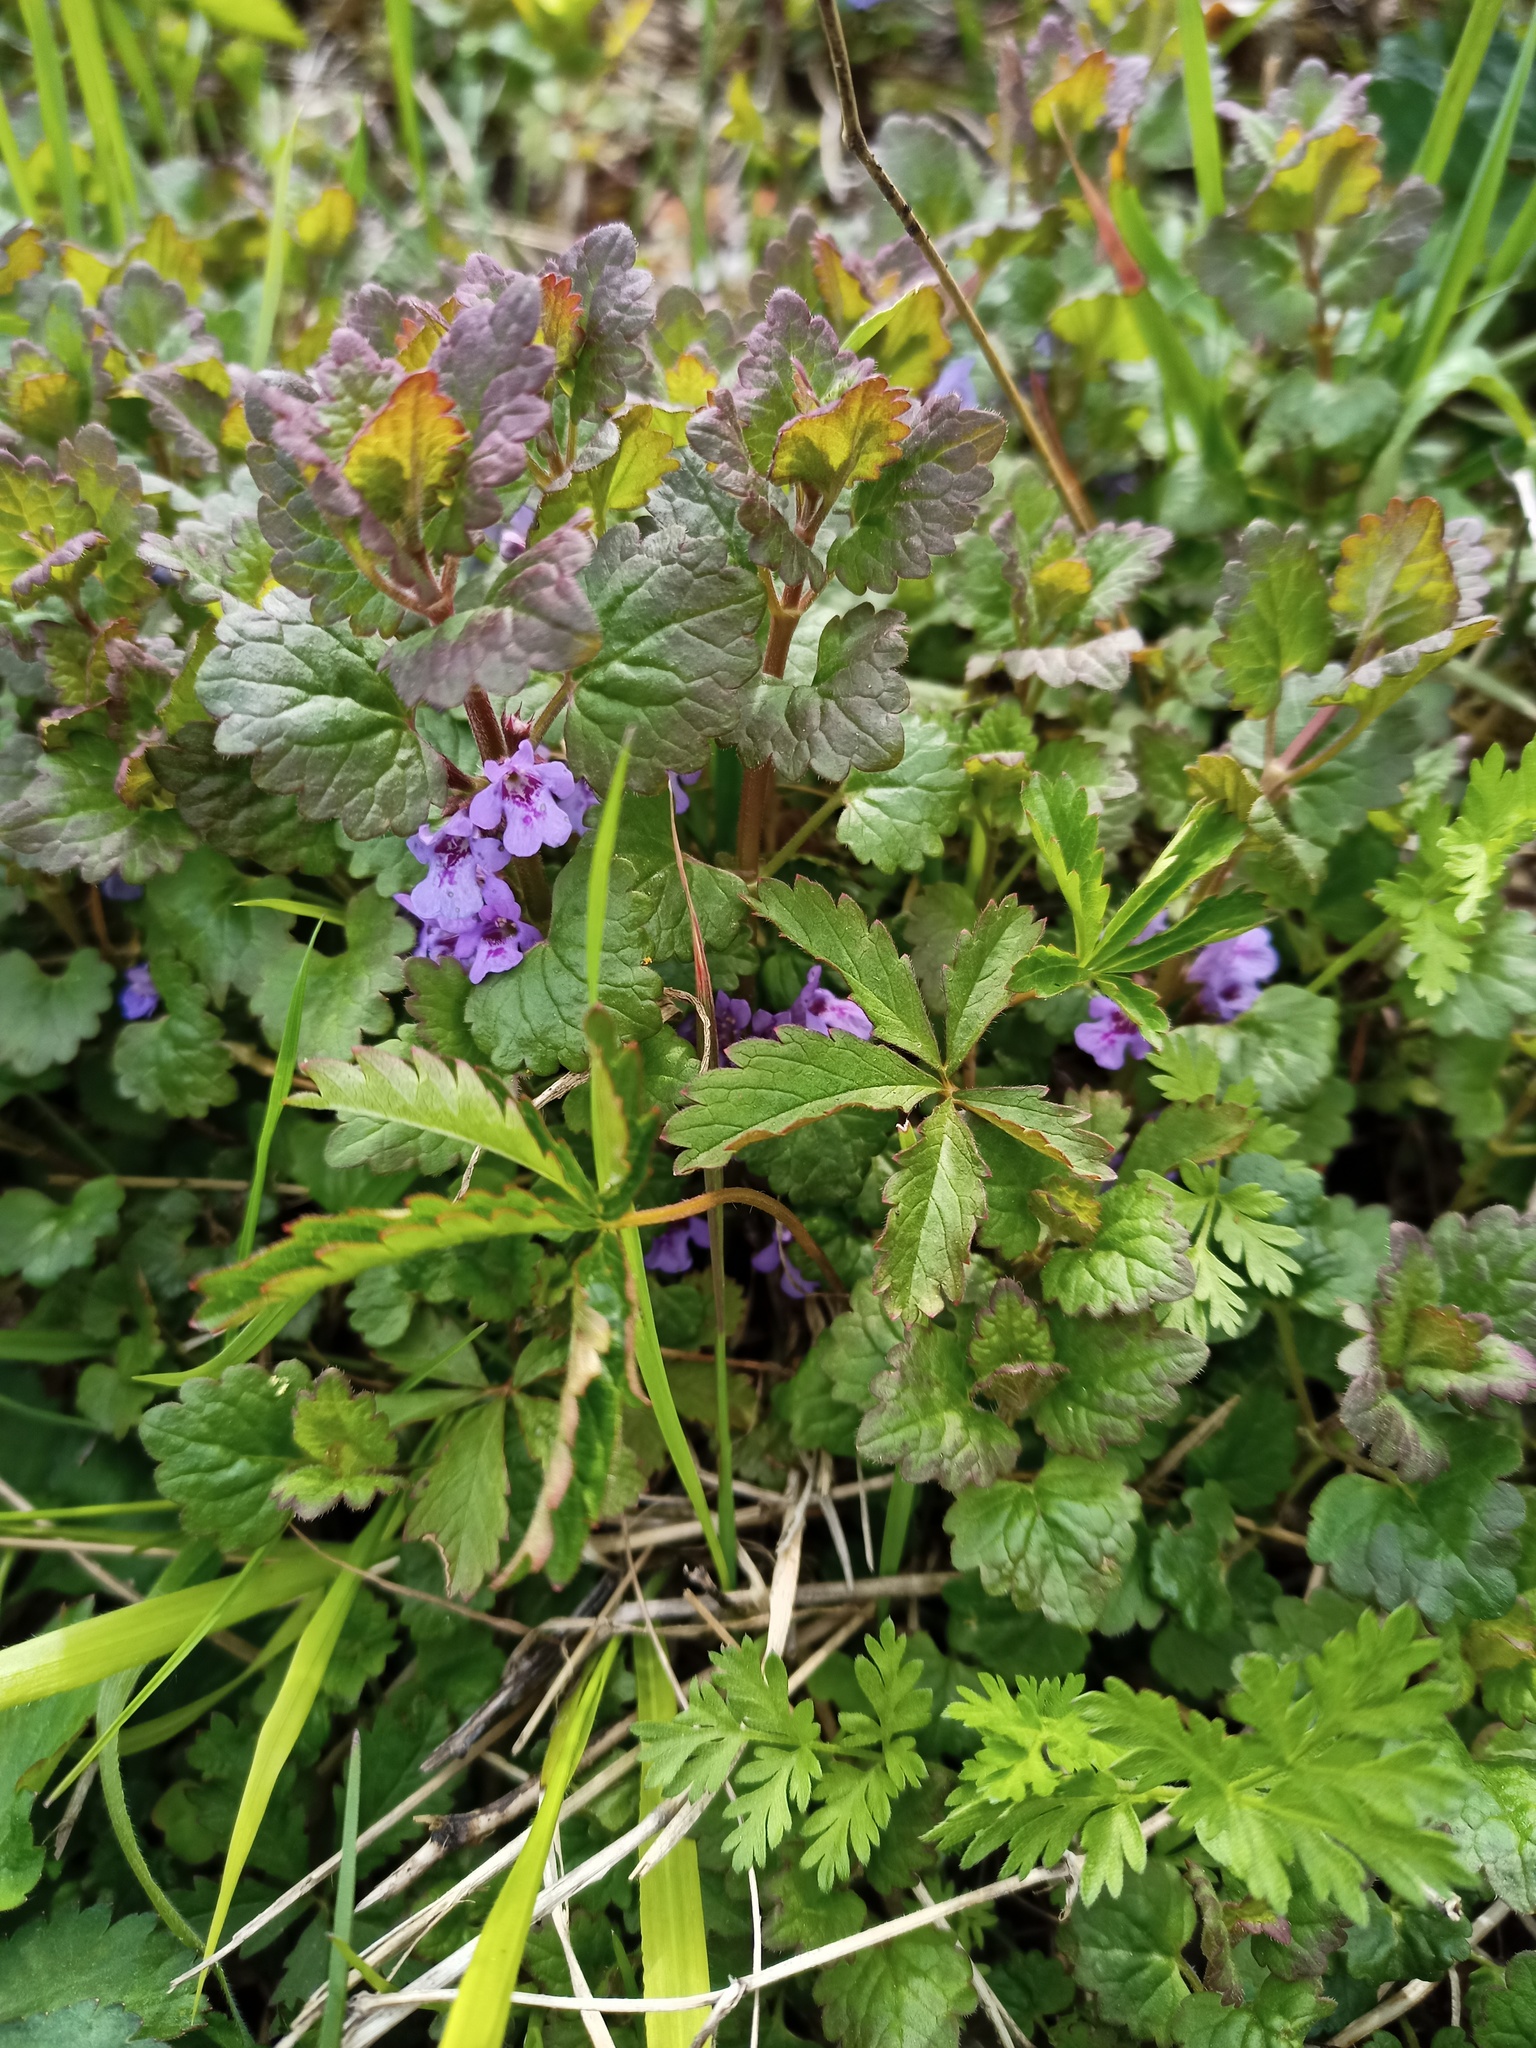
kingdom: Plantae
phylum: Tracheophyta
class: Magnoliopsida
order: Lamiales
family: Lamiaceae
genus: Glechoma
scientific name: Glechoma hederacea
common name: Ground ivy
